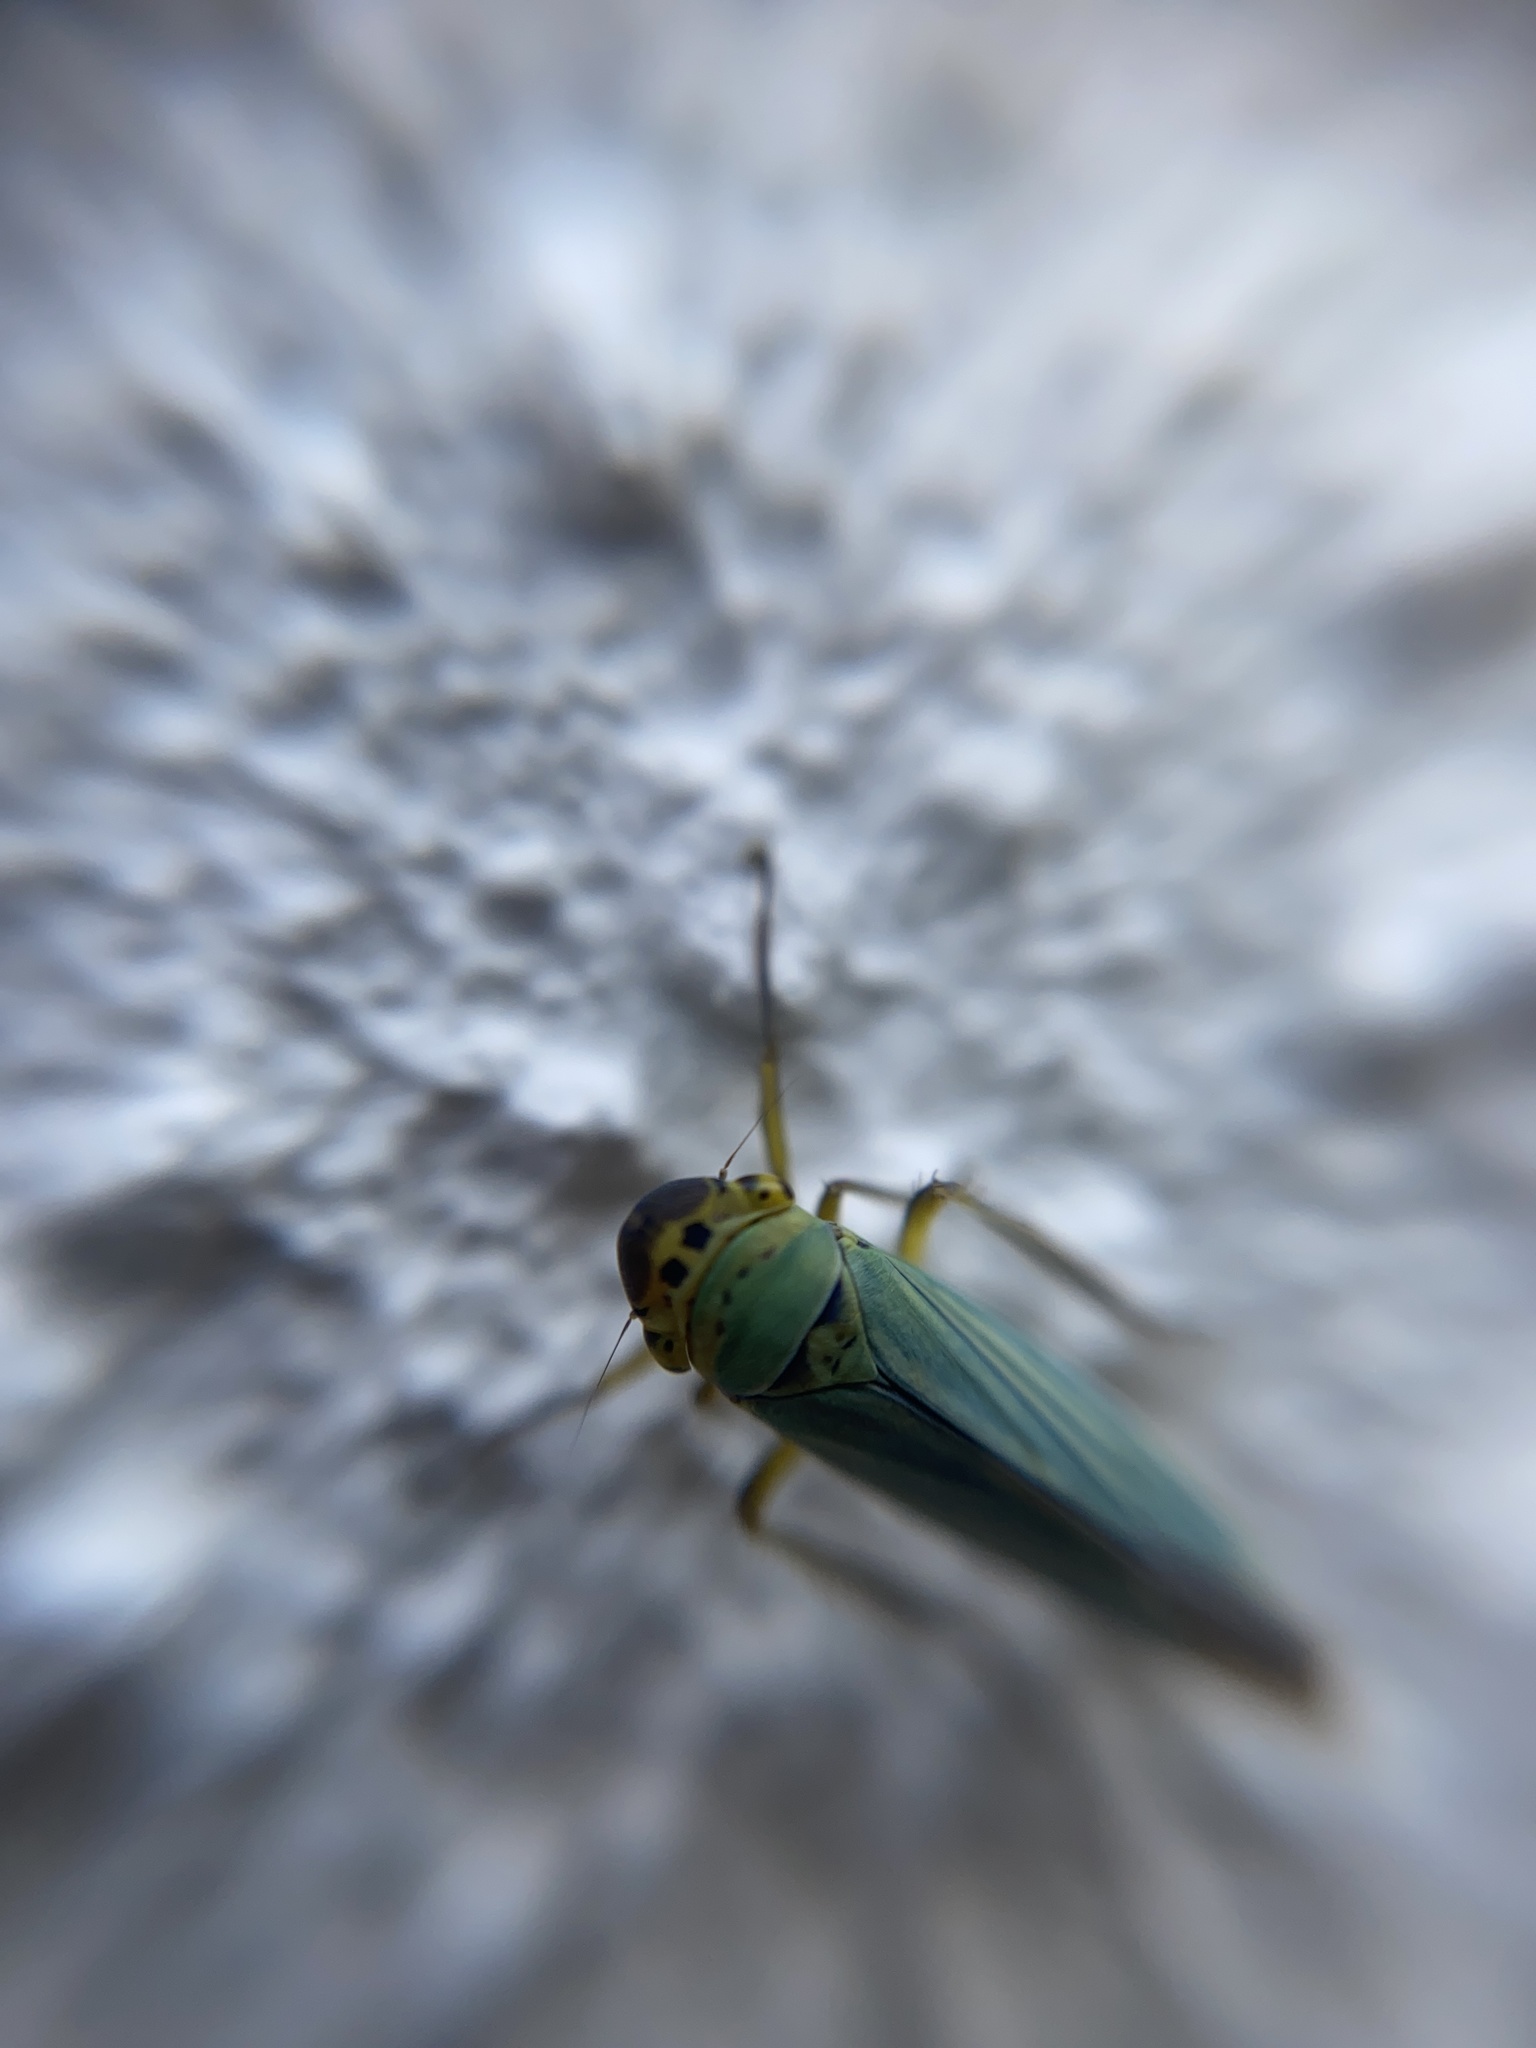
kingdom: Animalia
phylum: Arthropoda
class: Insecta
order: Hemiptera
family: Cicadellidae
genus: Cicadella
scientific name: Cicadella viridis
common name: Leafhopper
